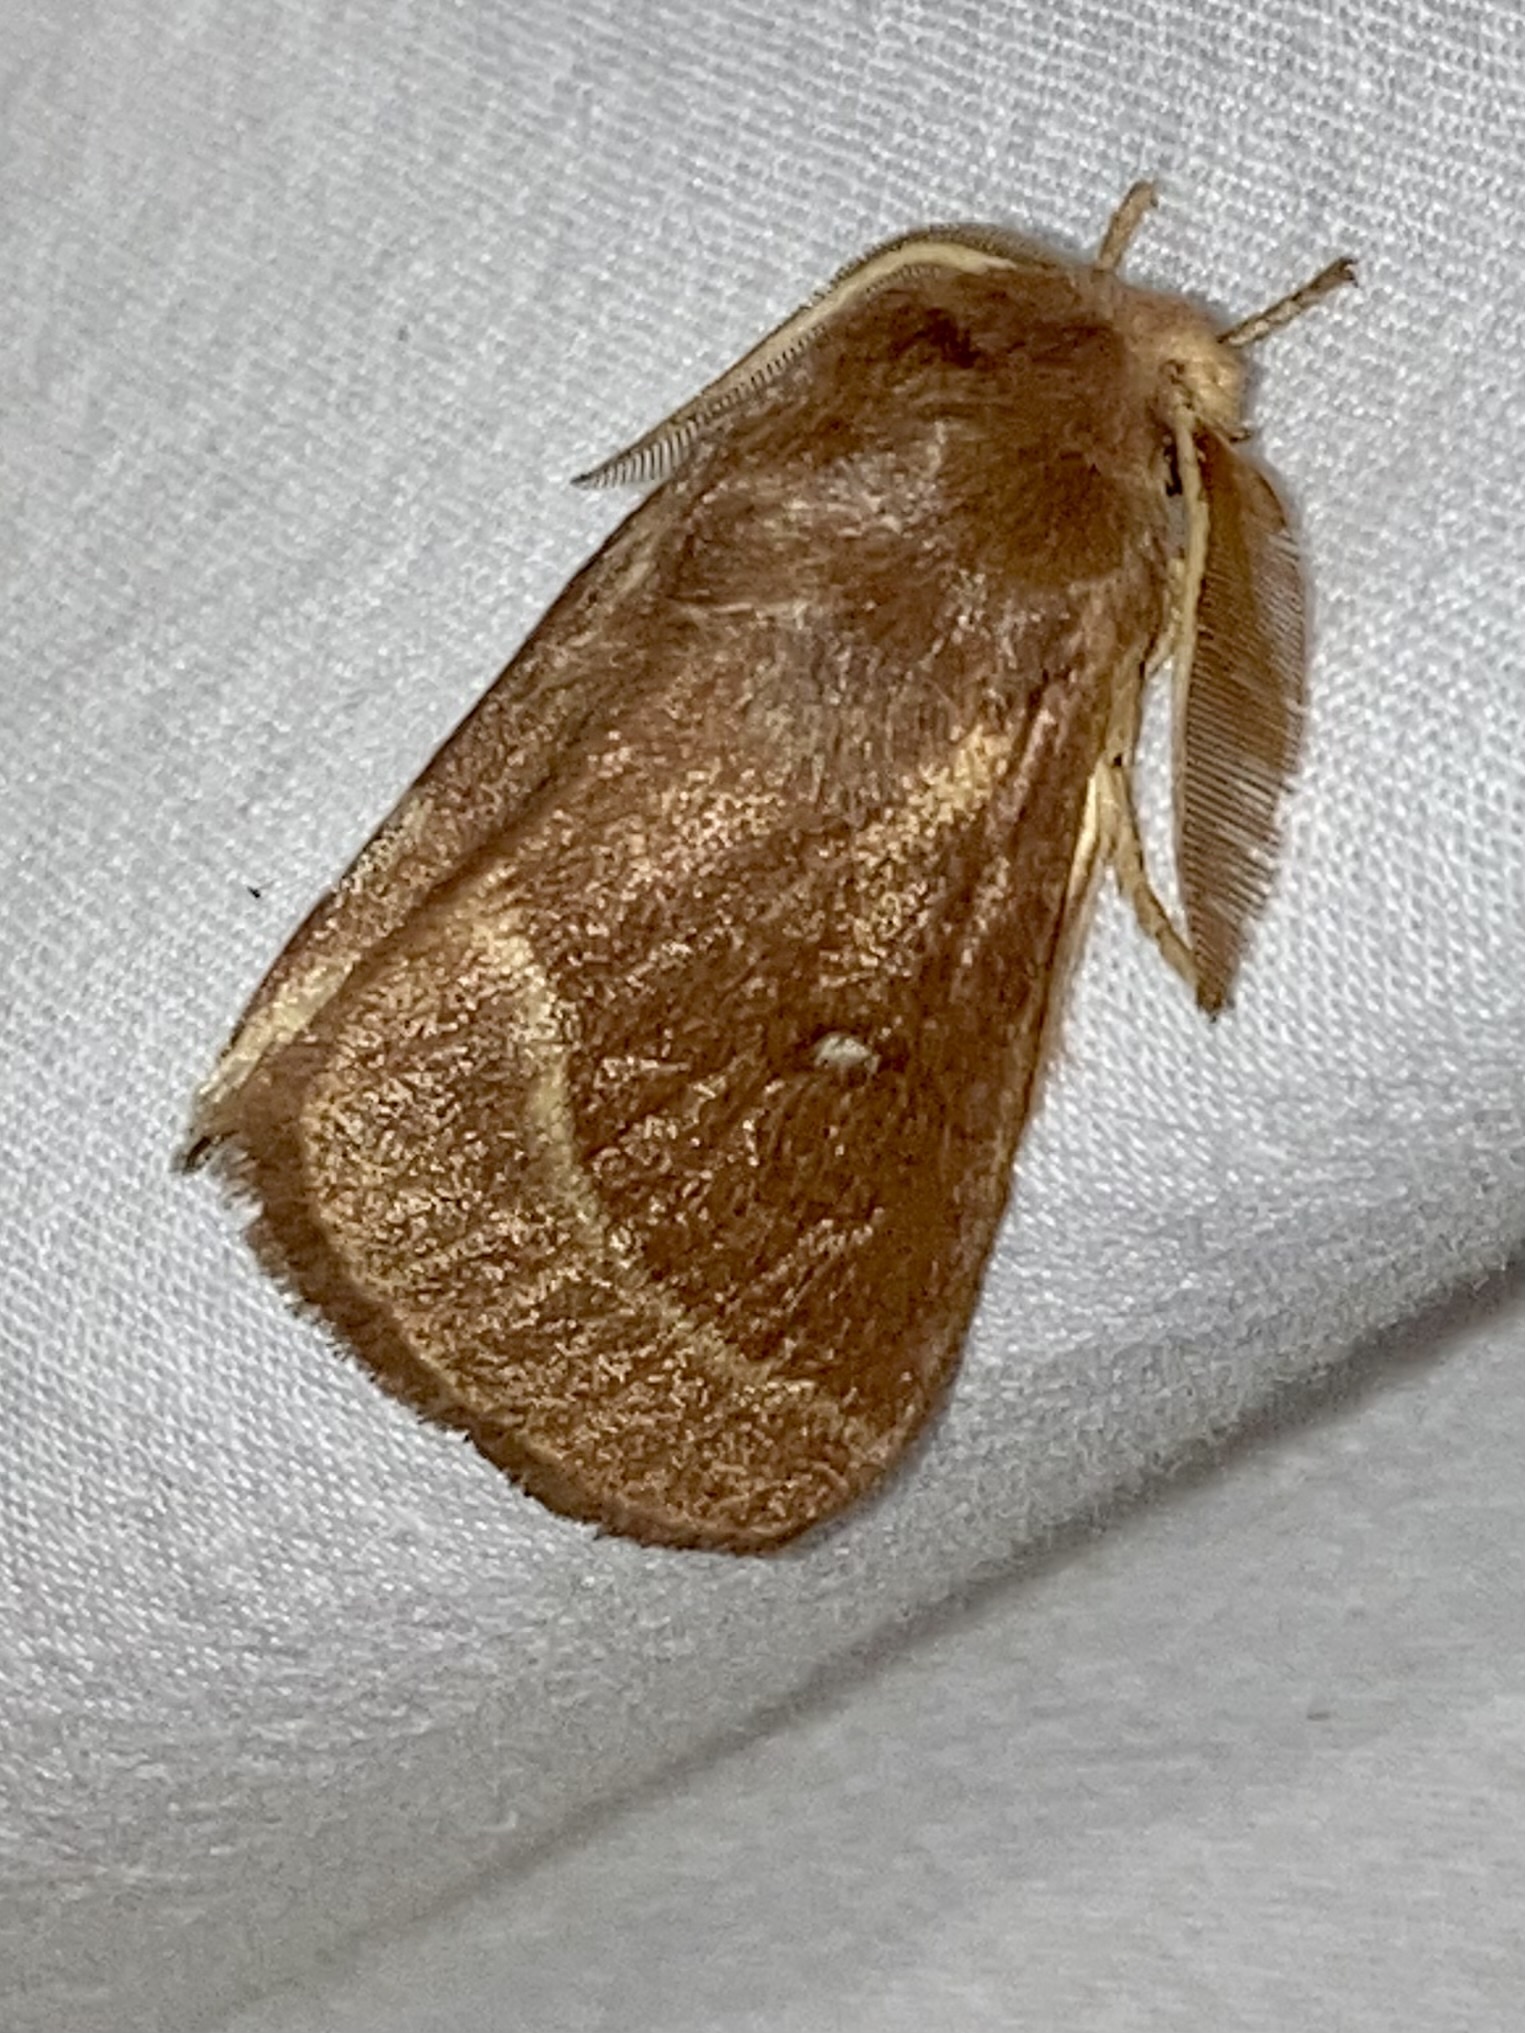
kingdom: Animalia
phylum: Arthropoda
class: Insecta
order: Lepidoptera
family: Lasiocampidae
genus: Lasiocampa
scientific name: Lasiocampa trifolii
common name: Grass eggar
